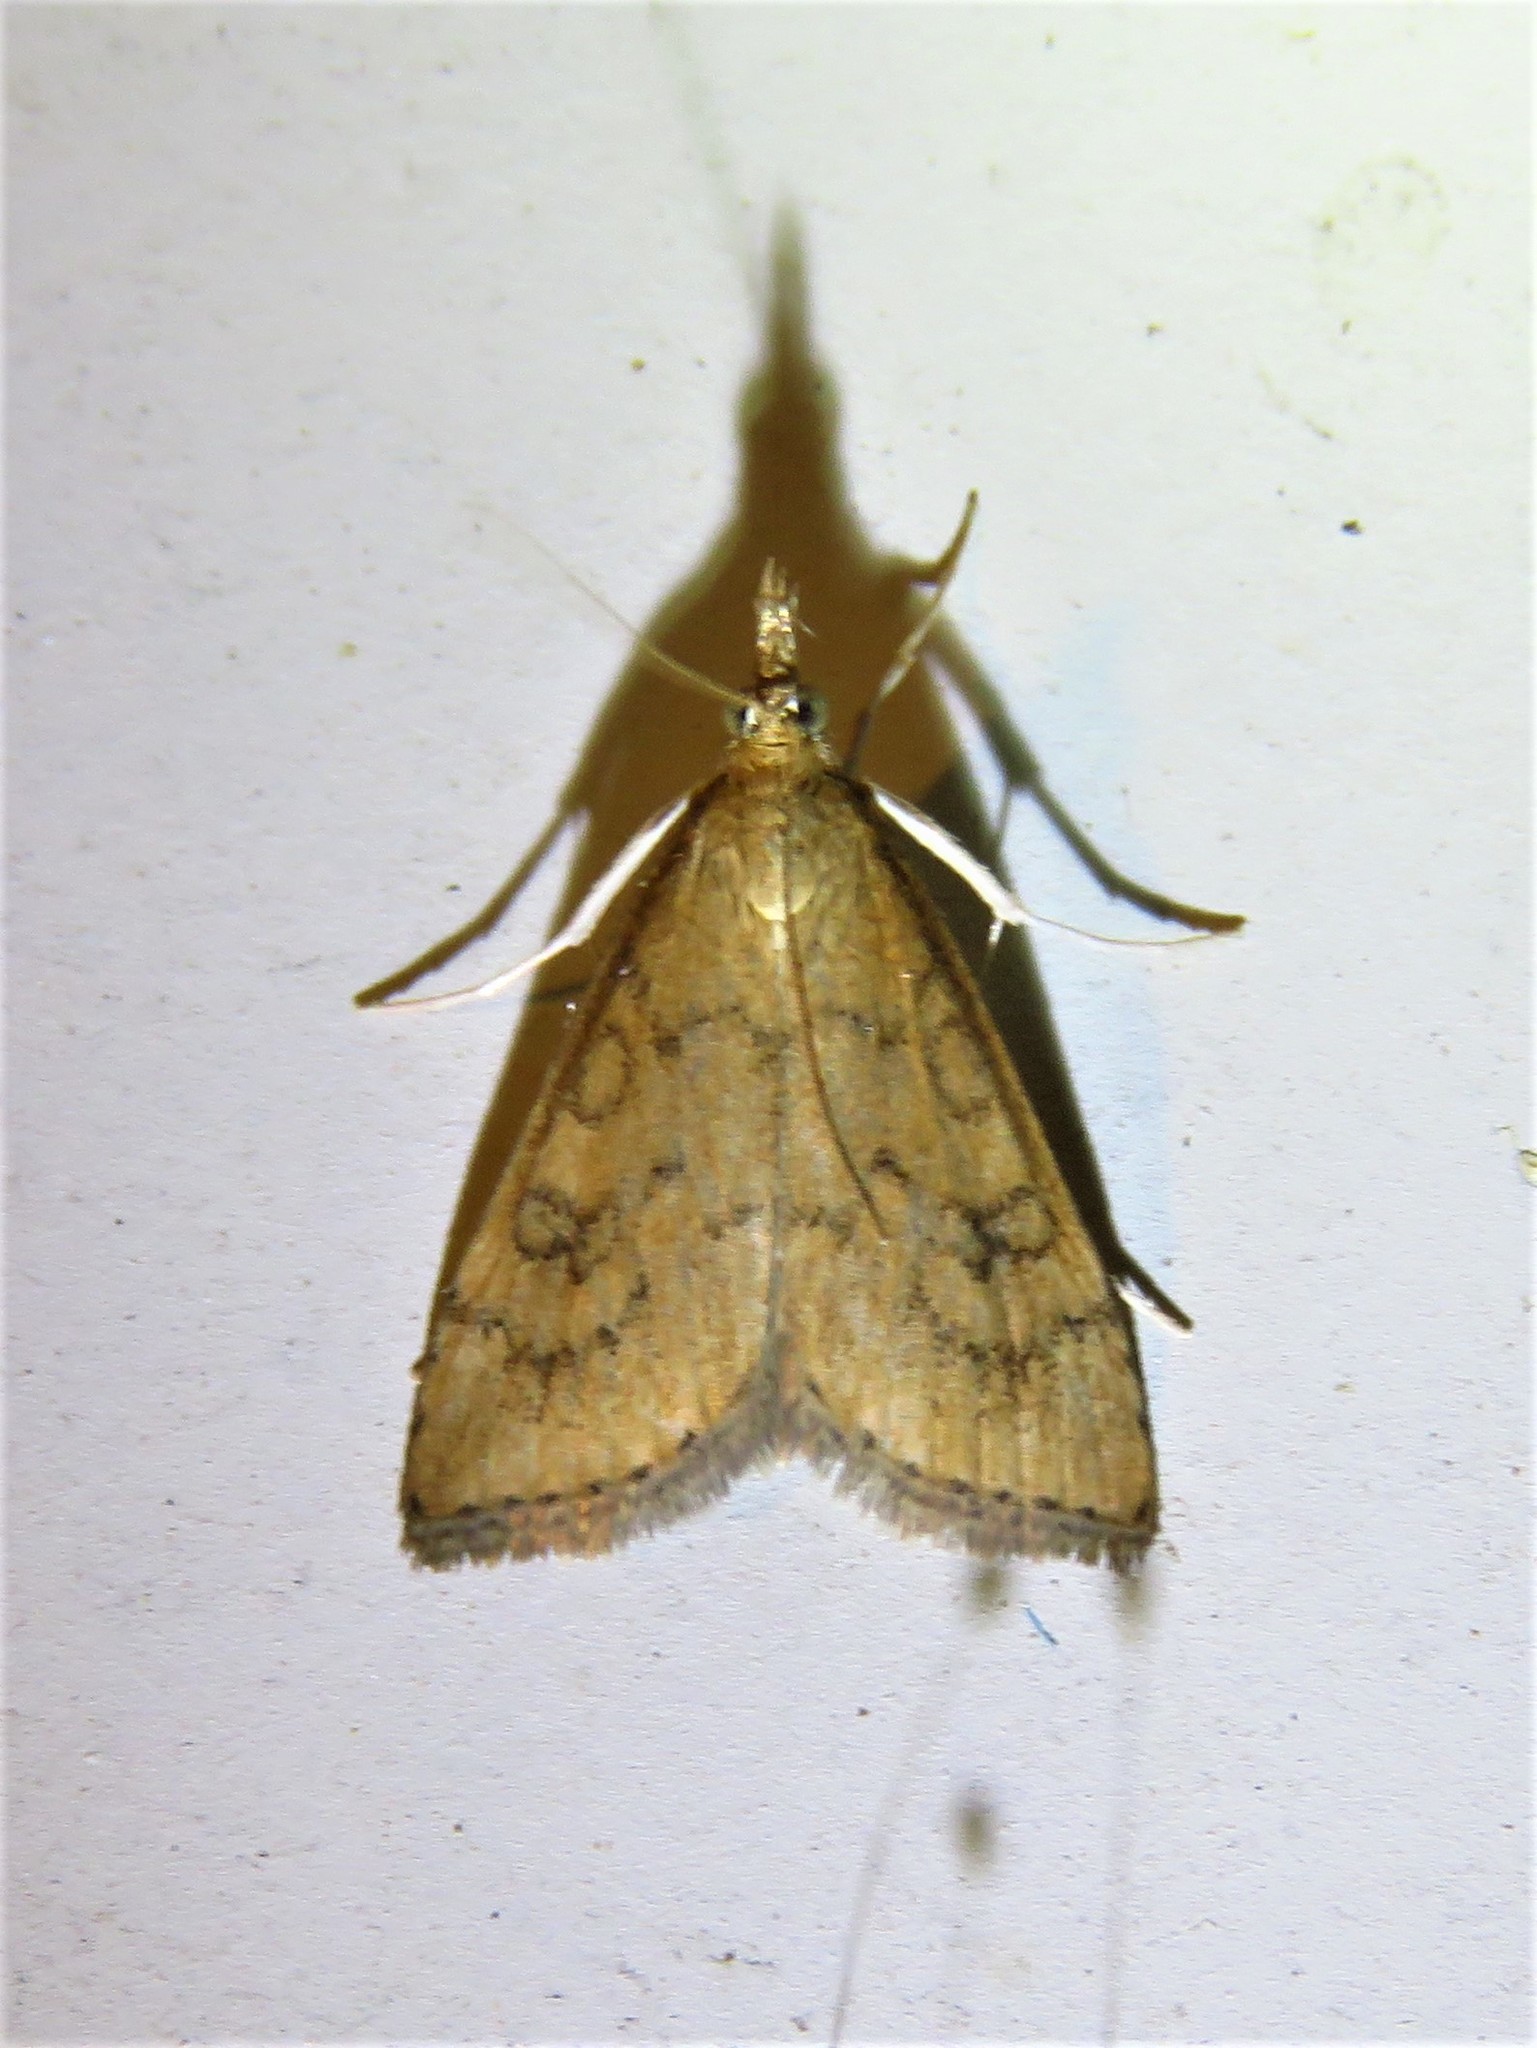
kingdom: Animalia
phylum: Arthropoda
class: Insecta
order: Lepidoptera
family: Crambidae
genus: Udea
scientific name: Udea rubigalis
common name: Celery leaftier moth
